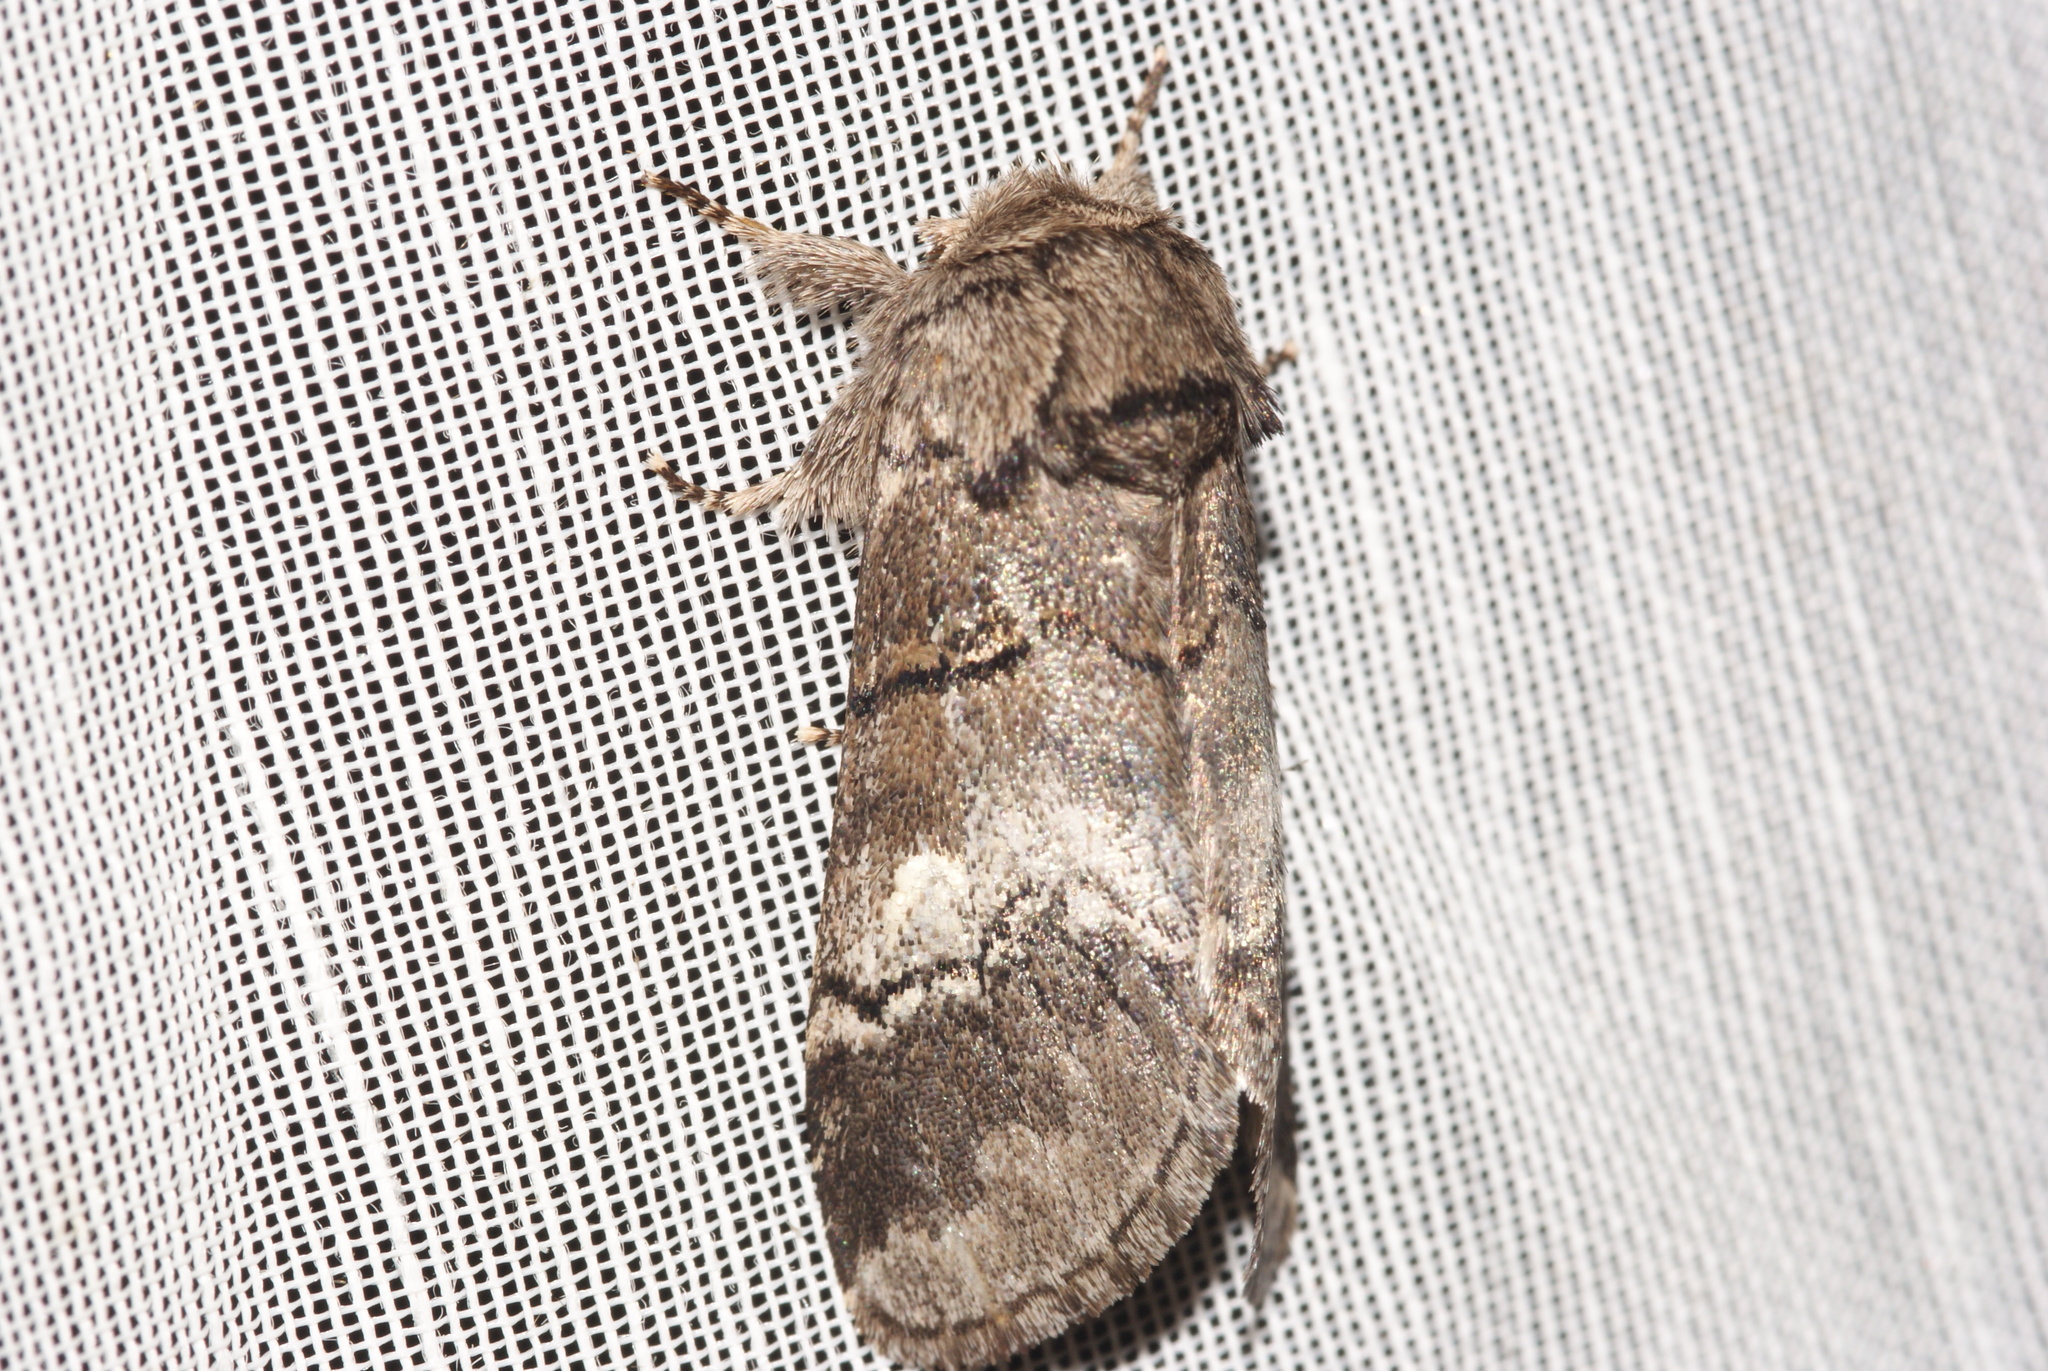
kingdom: Animalia
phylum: Arthropoda
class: Insecta
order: Lepidoptera
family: Notodontidae
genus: Drymonia
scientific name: Drymonia querna
